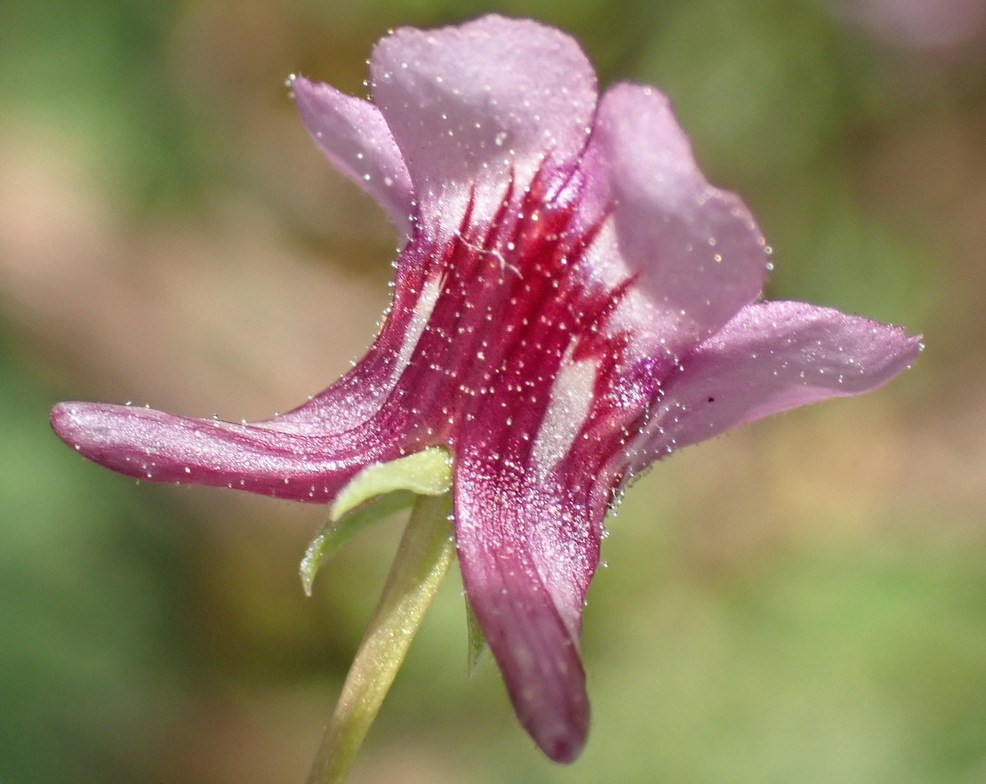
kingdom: Plantae
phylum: Tracheophyta
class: Magnoliopsida
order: Lamiales
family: Scrophulariaceae
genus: Diascia
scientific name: Diascia hexensis
